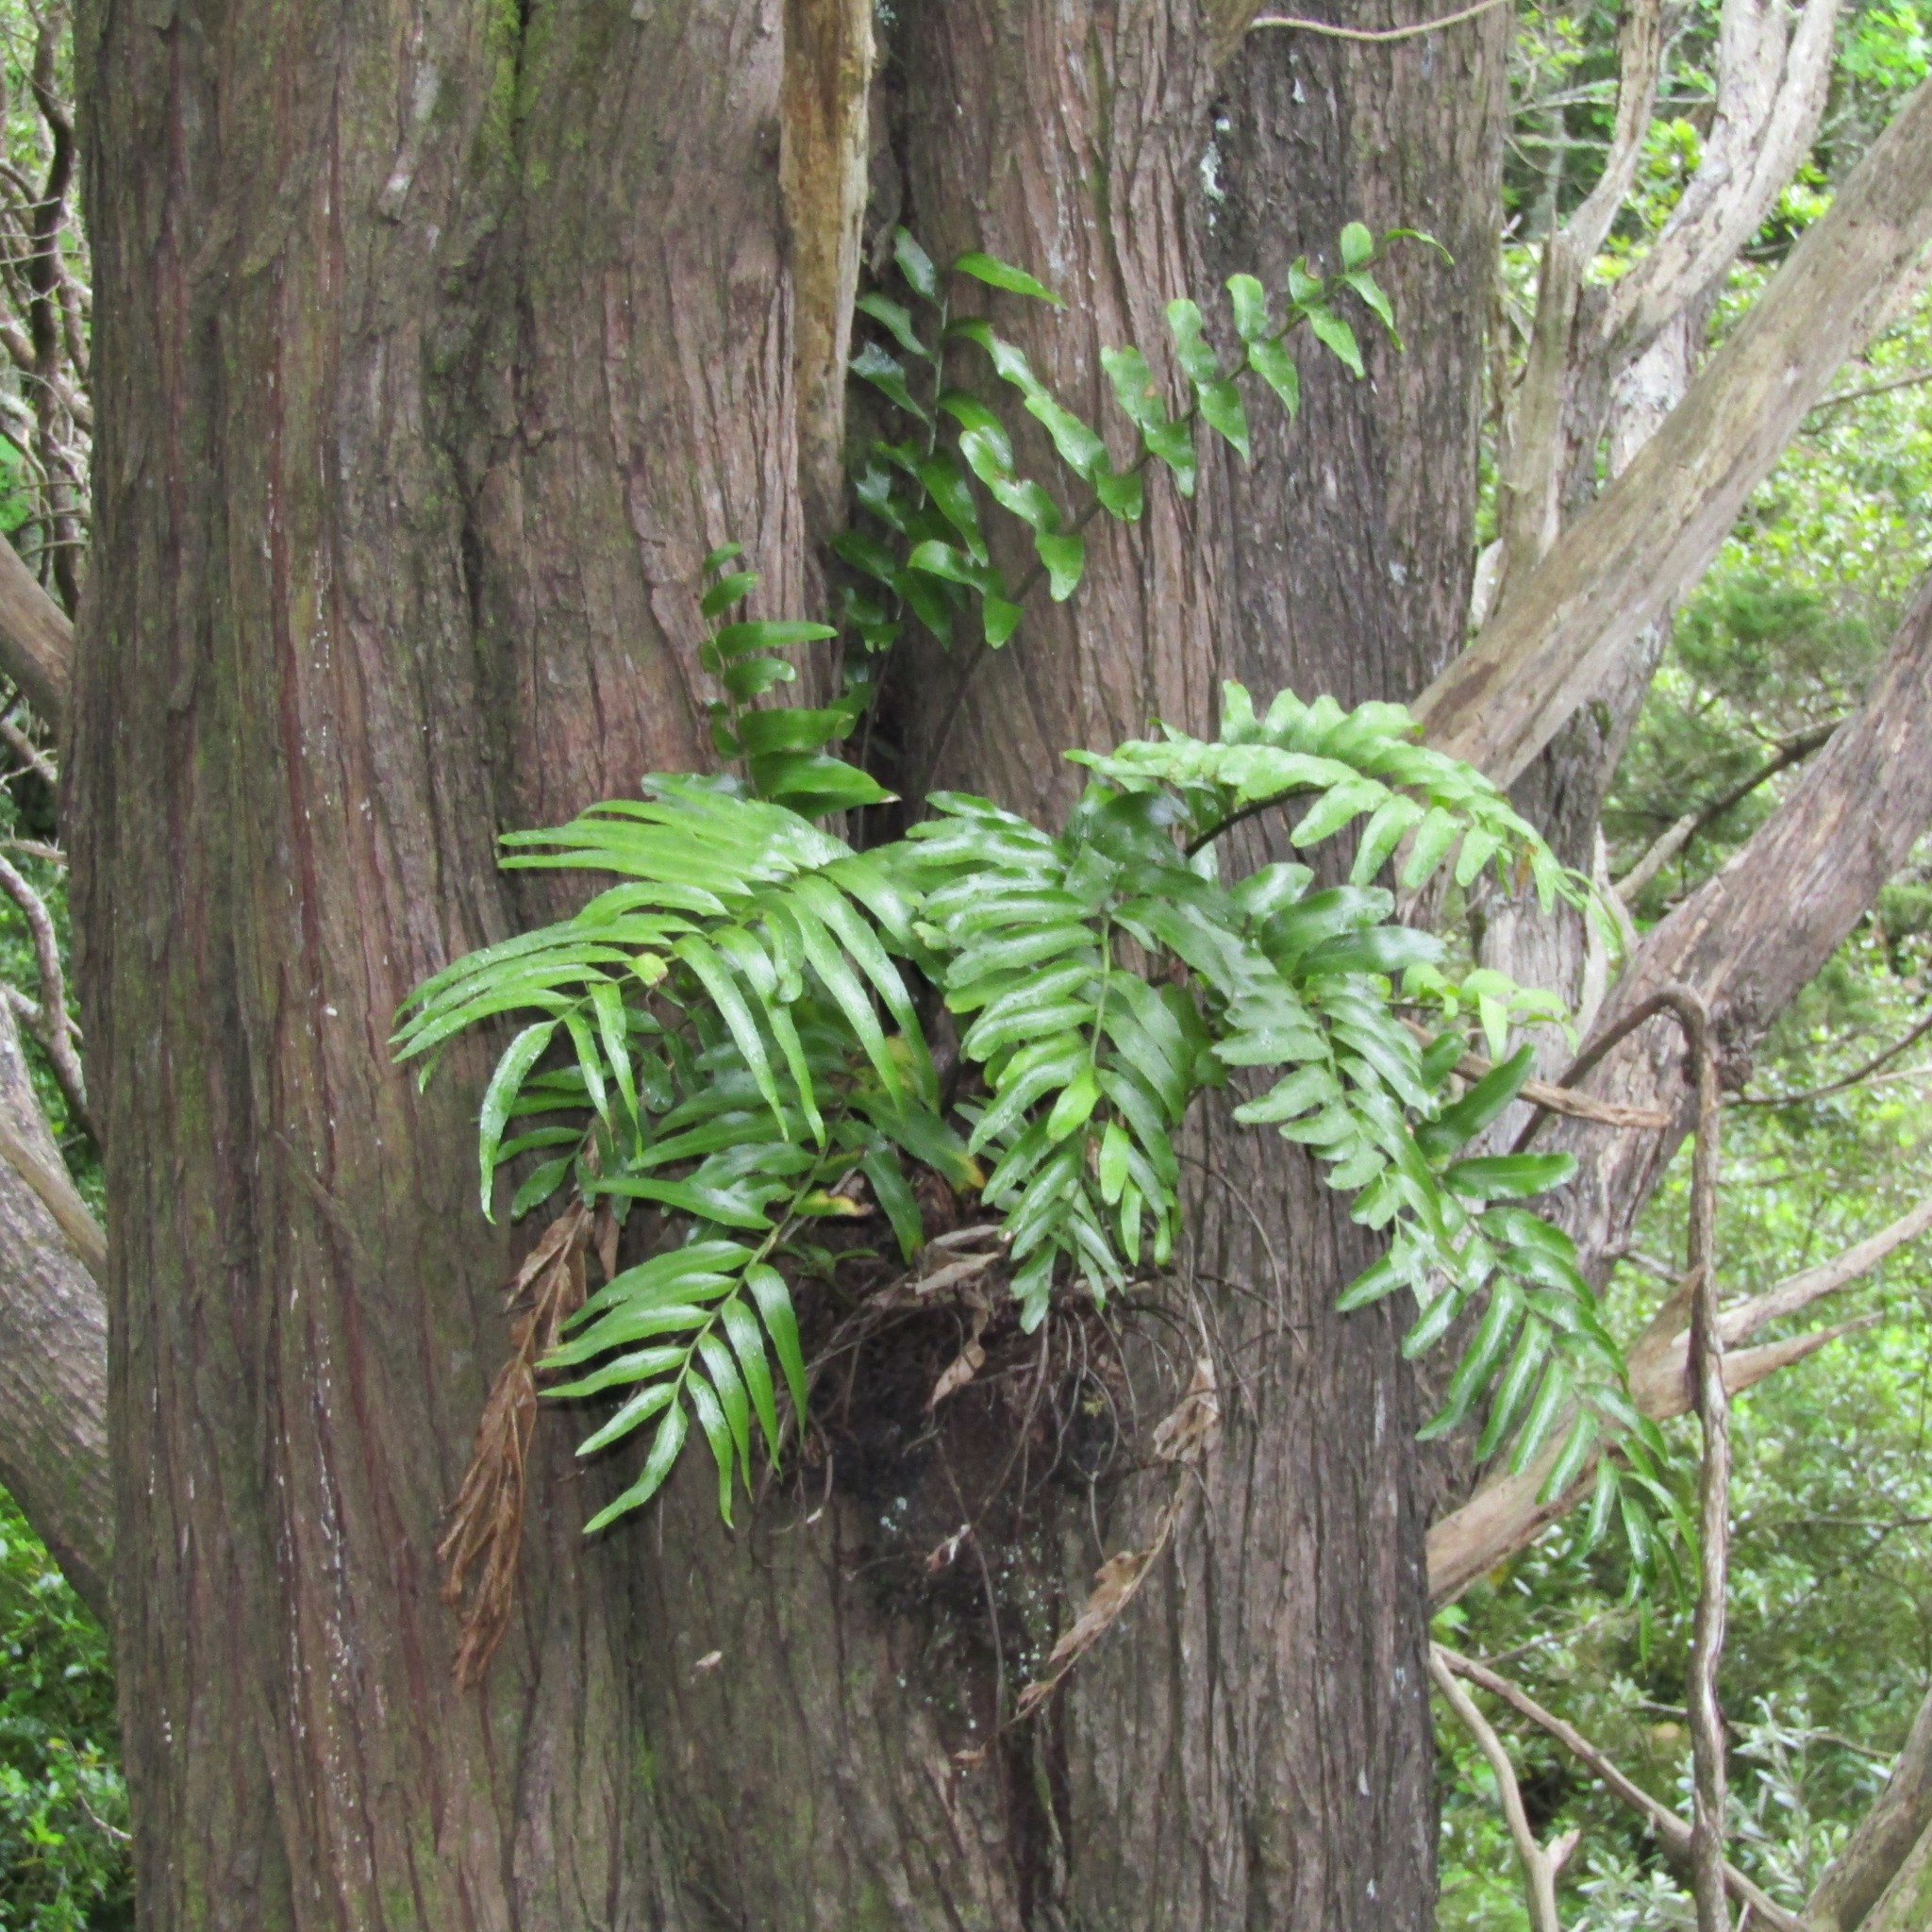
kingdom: Plantae
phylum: Tracheophyta
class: Polypodiopsida
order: Polypodiales
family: Aspleniaceae
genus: Asplenium
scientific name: Asplenium oblongifolium
